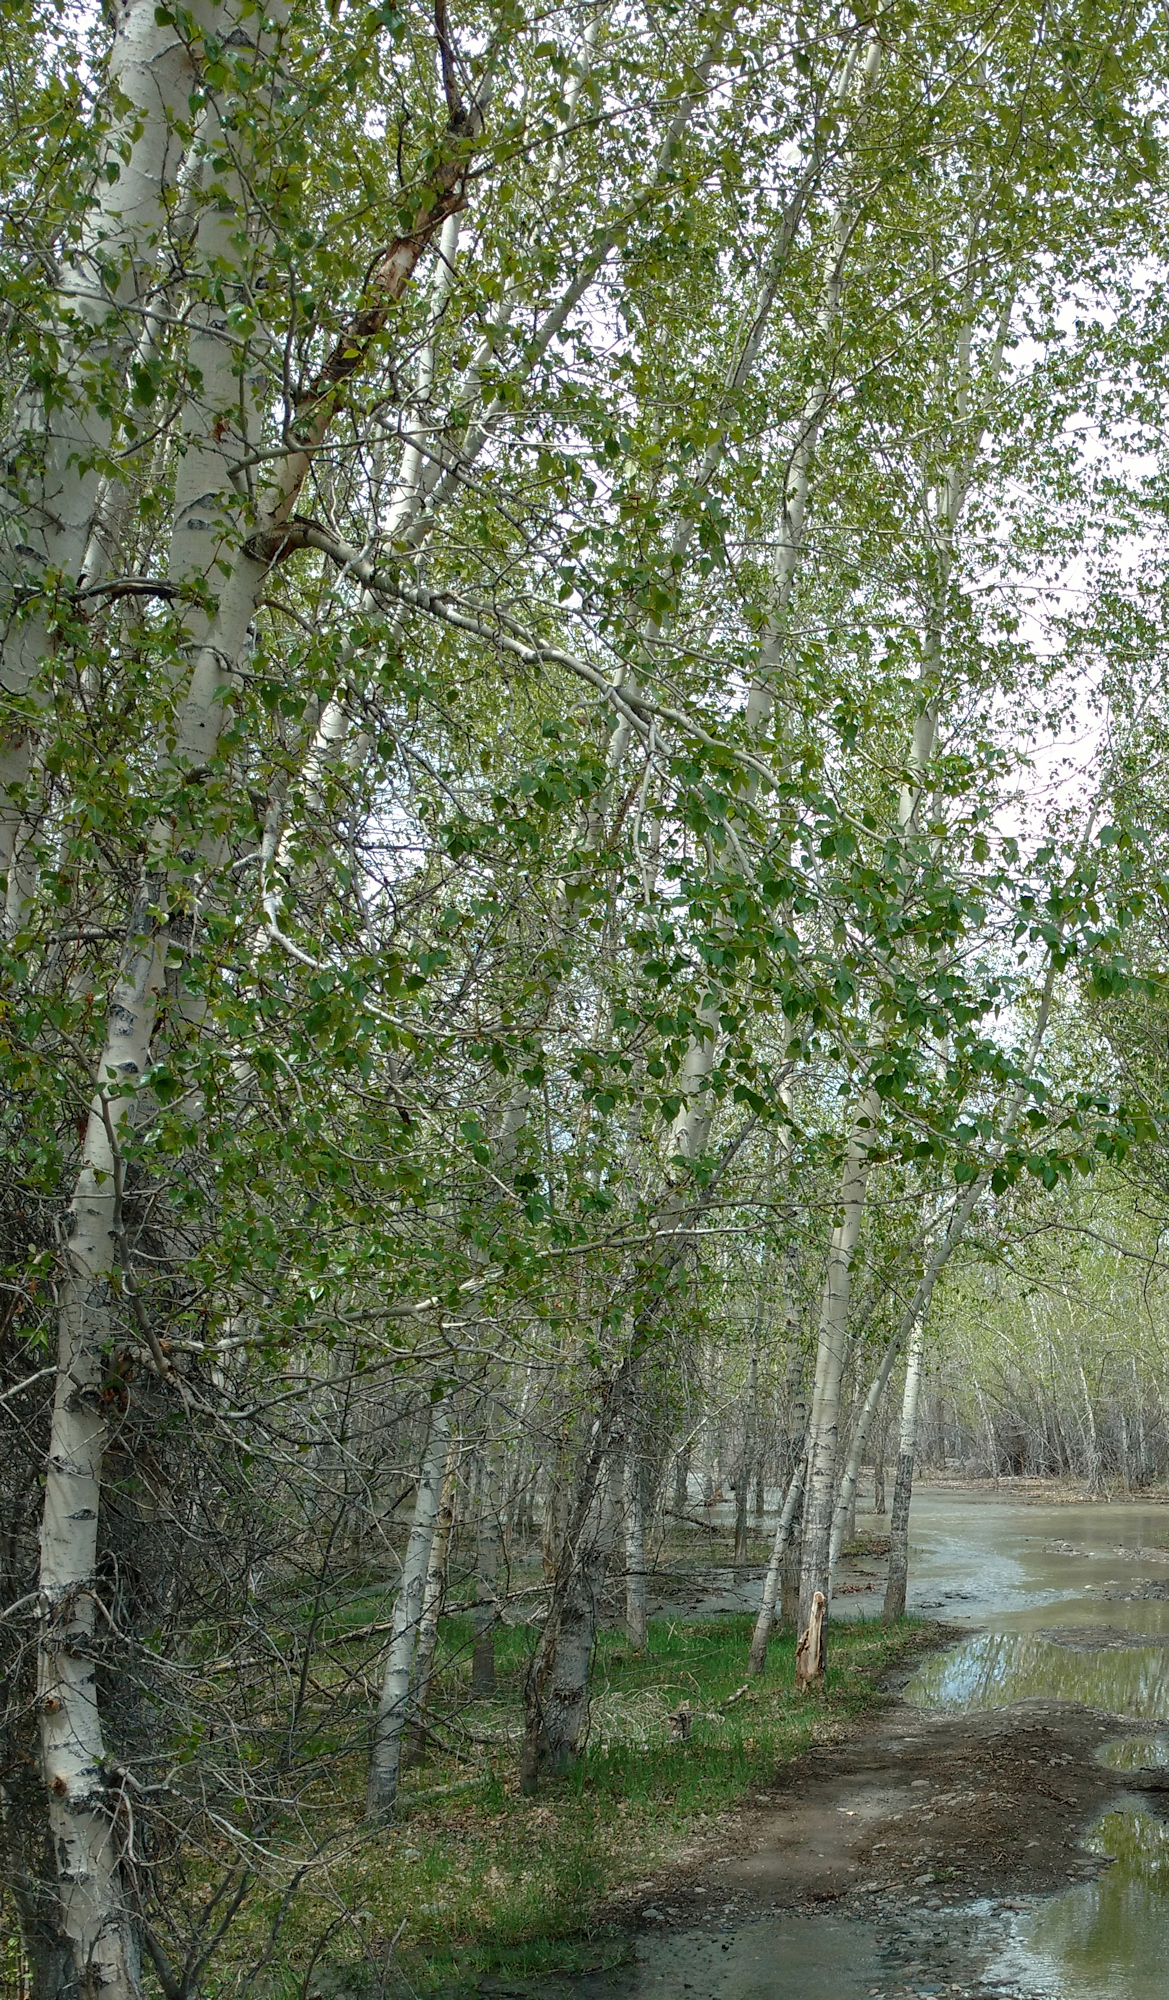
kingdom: Plantae
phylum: Tracheophyta
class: Magnoliopsida
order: Malpighiales
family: Salicaceae
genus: Populus
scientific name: Populus tremuloides
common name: Quaking aspen
